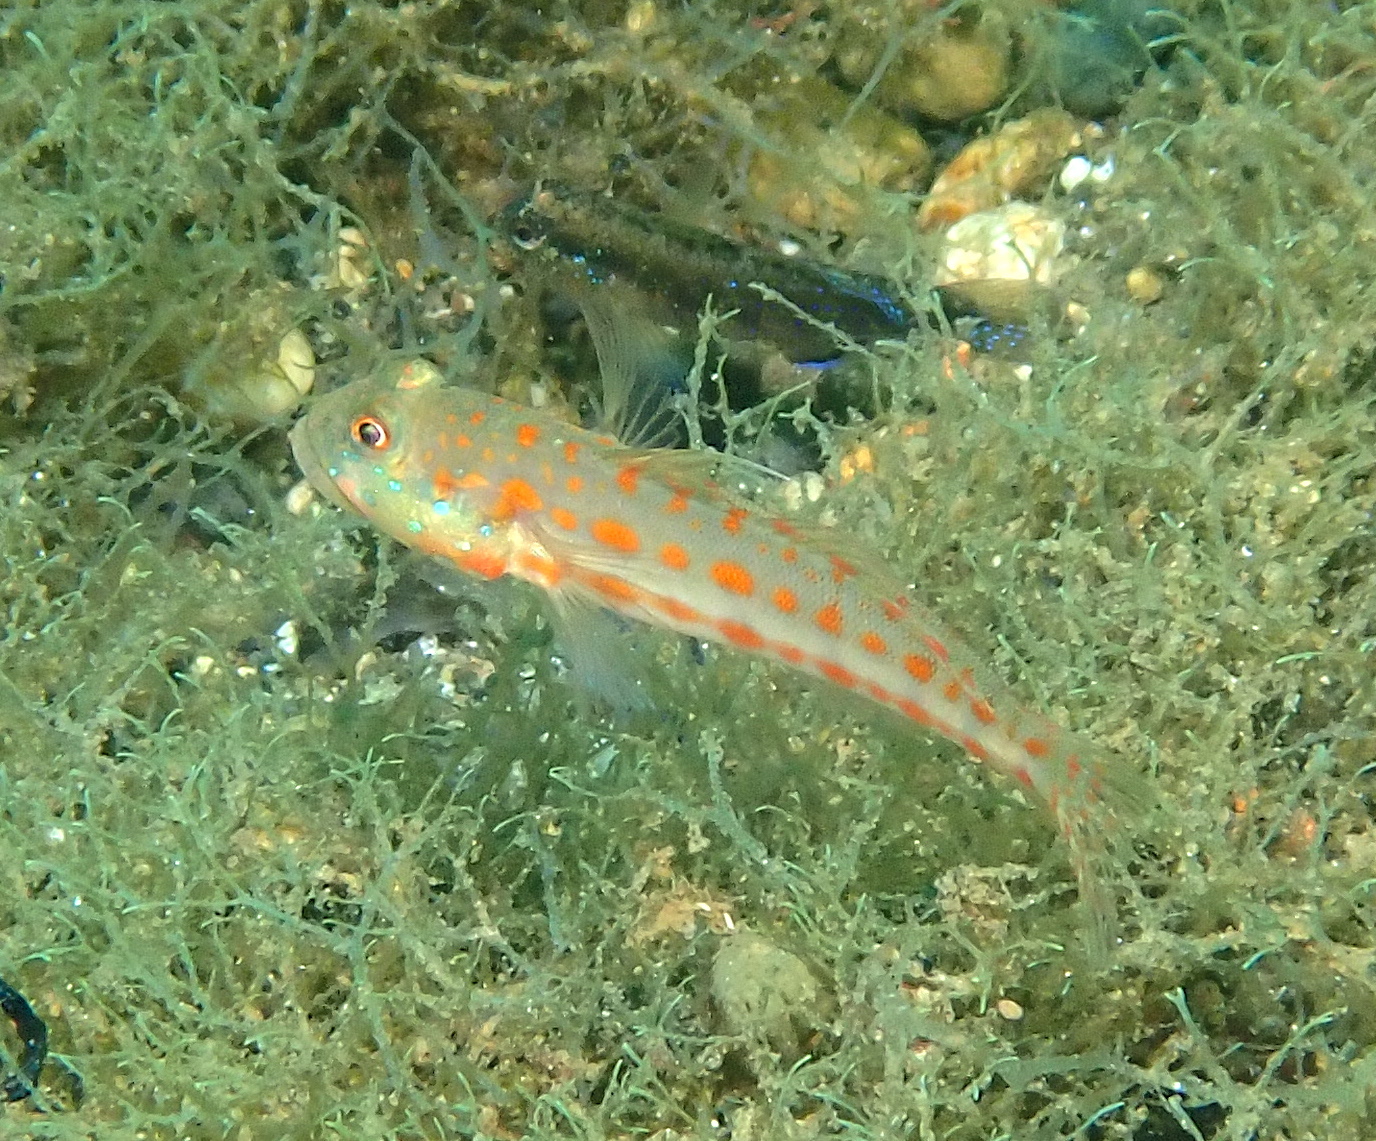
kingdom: Animalia
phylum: Chordata
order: Perciformes
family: Gobiidae
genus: Valenciennea
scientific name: Valenciennea puellaris
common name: Orange-dashed goby
